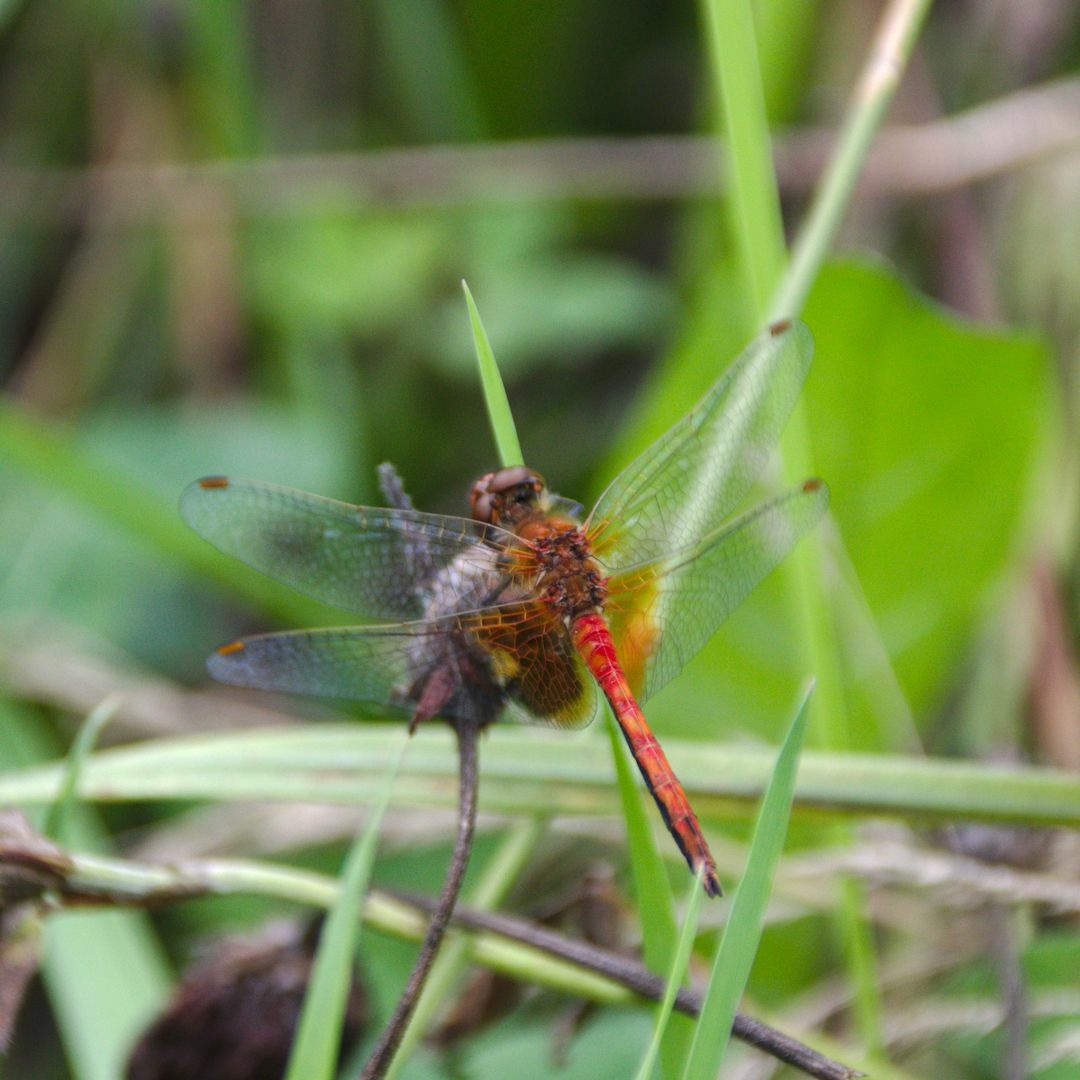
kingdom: Animalia
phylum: Arthropoda
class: Insecta
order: Odonata
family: Libellulidae
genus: Sympetrum
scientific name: Sympetrum flaveolum
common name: Yellow-winged darter
